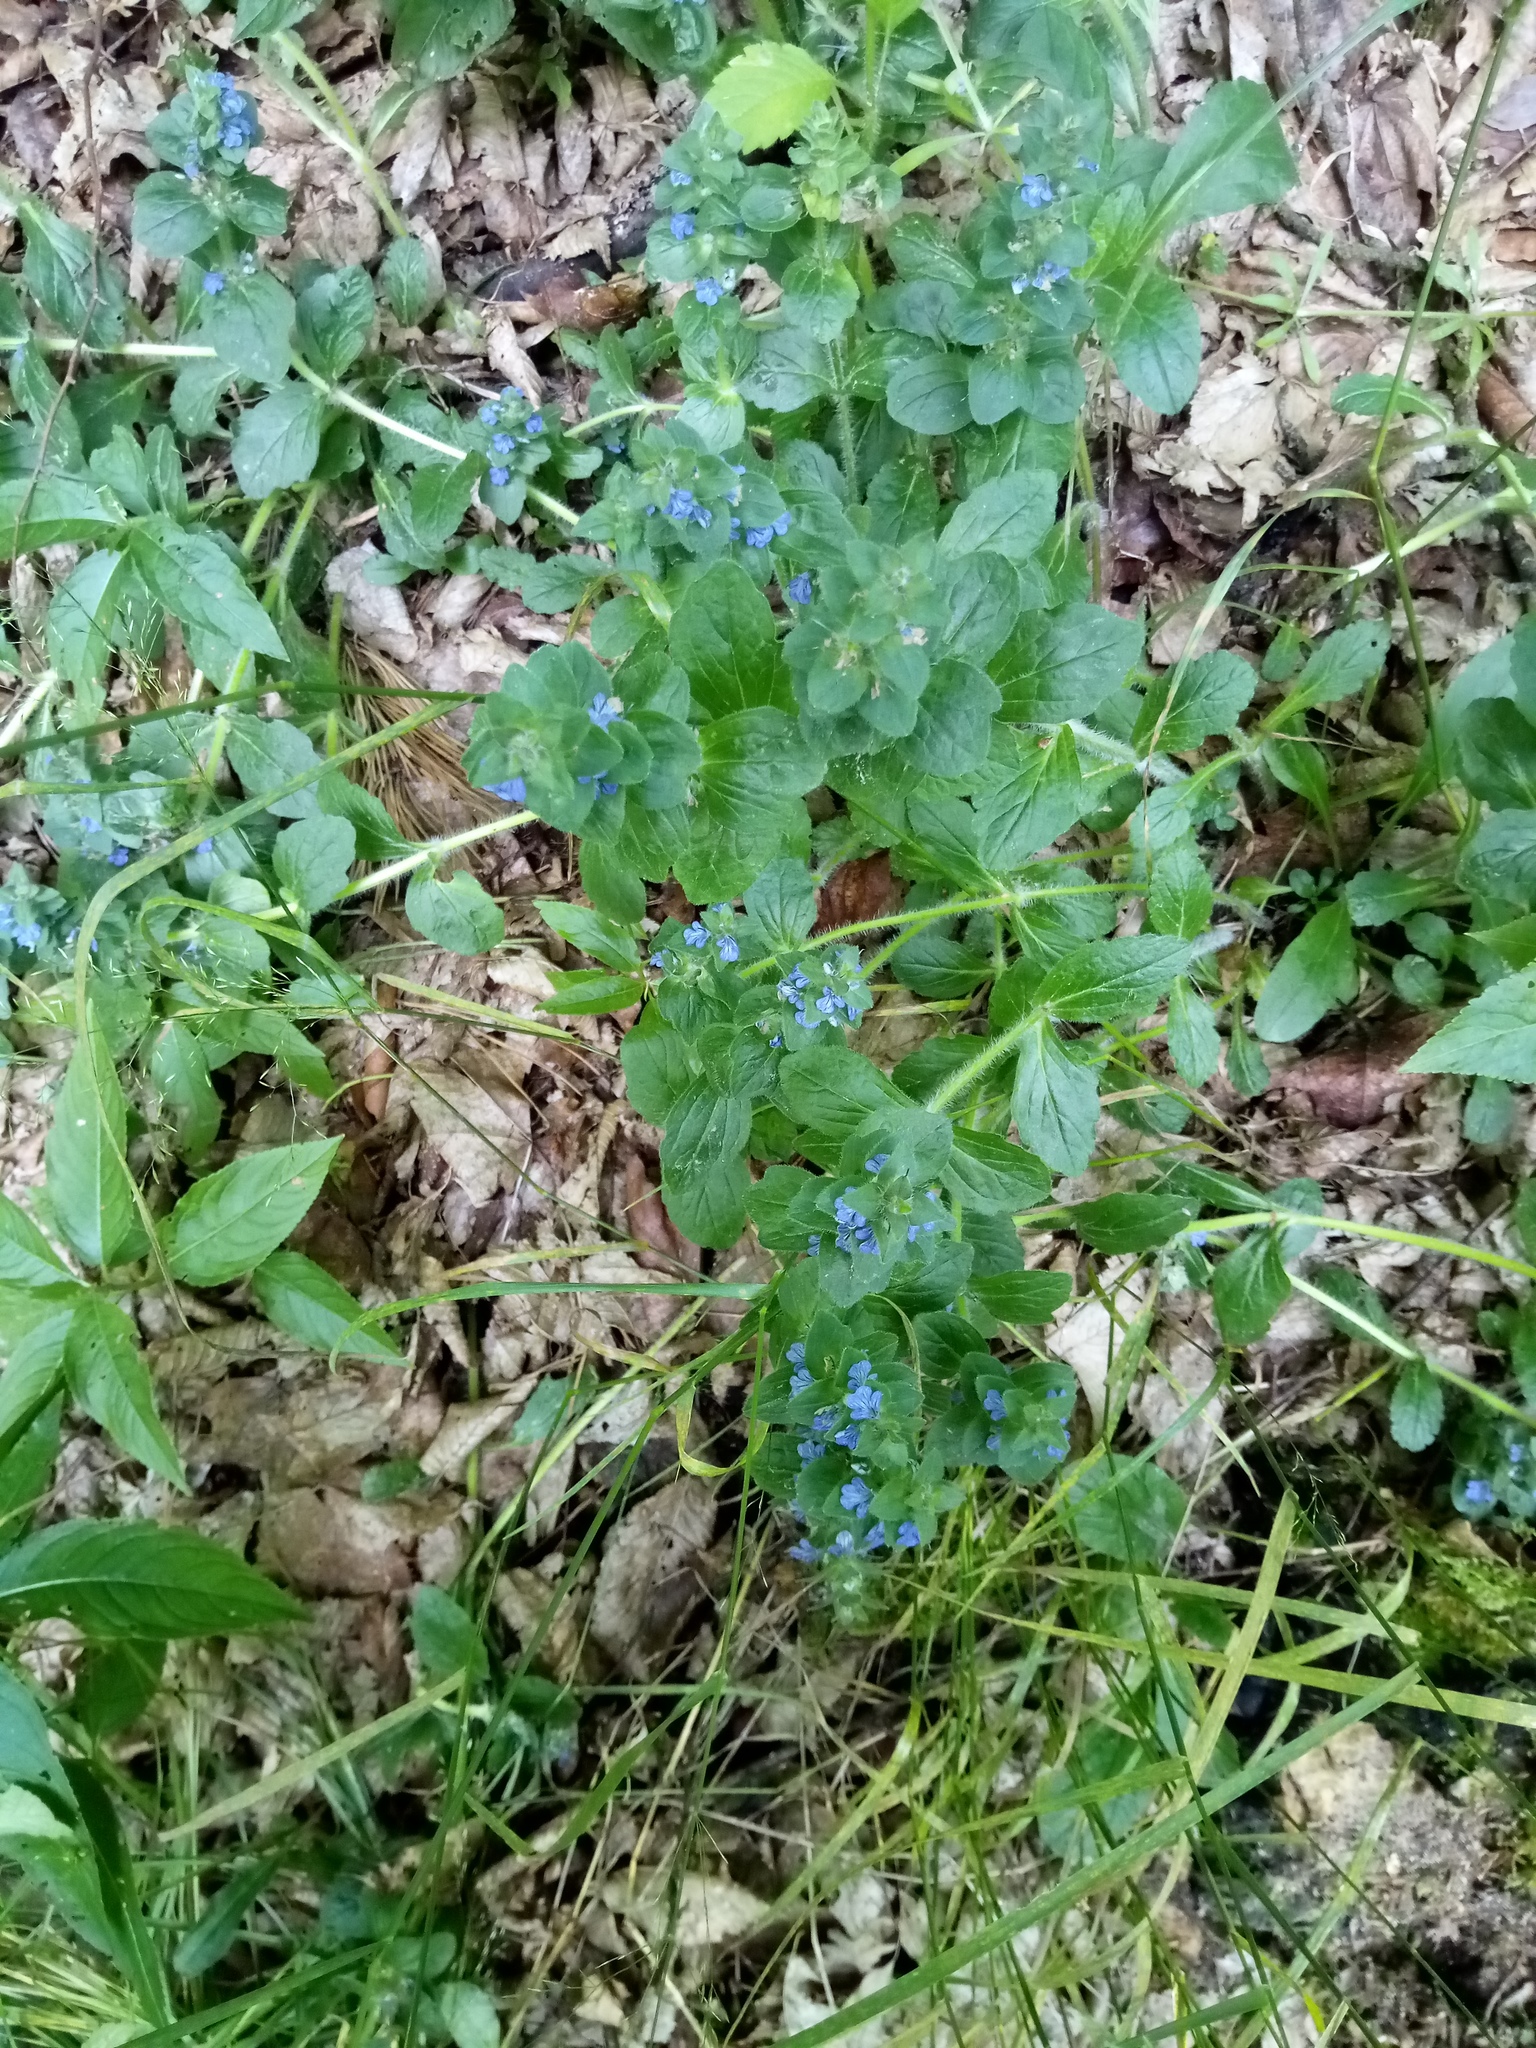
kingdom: Plantae
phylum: Tracheophyta
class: Magnoliopsida
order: Lamiales
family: Lamiaceae
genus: Ajuga
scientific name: Ajuga genevensis
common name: Blue bugle
